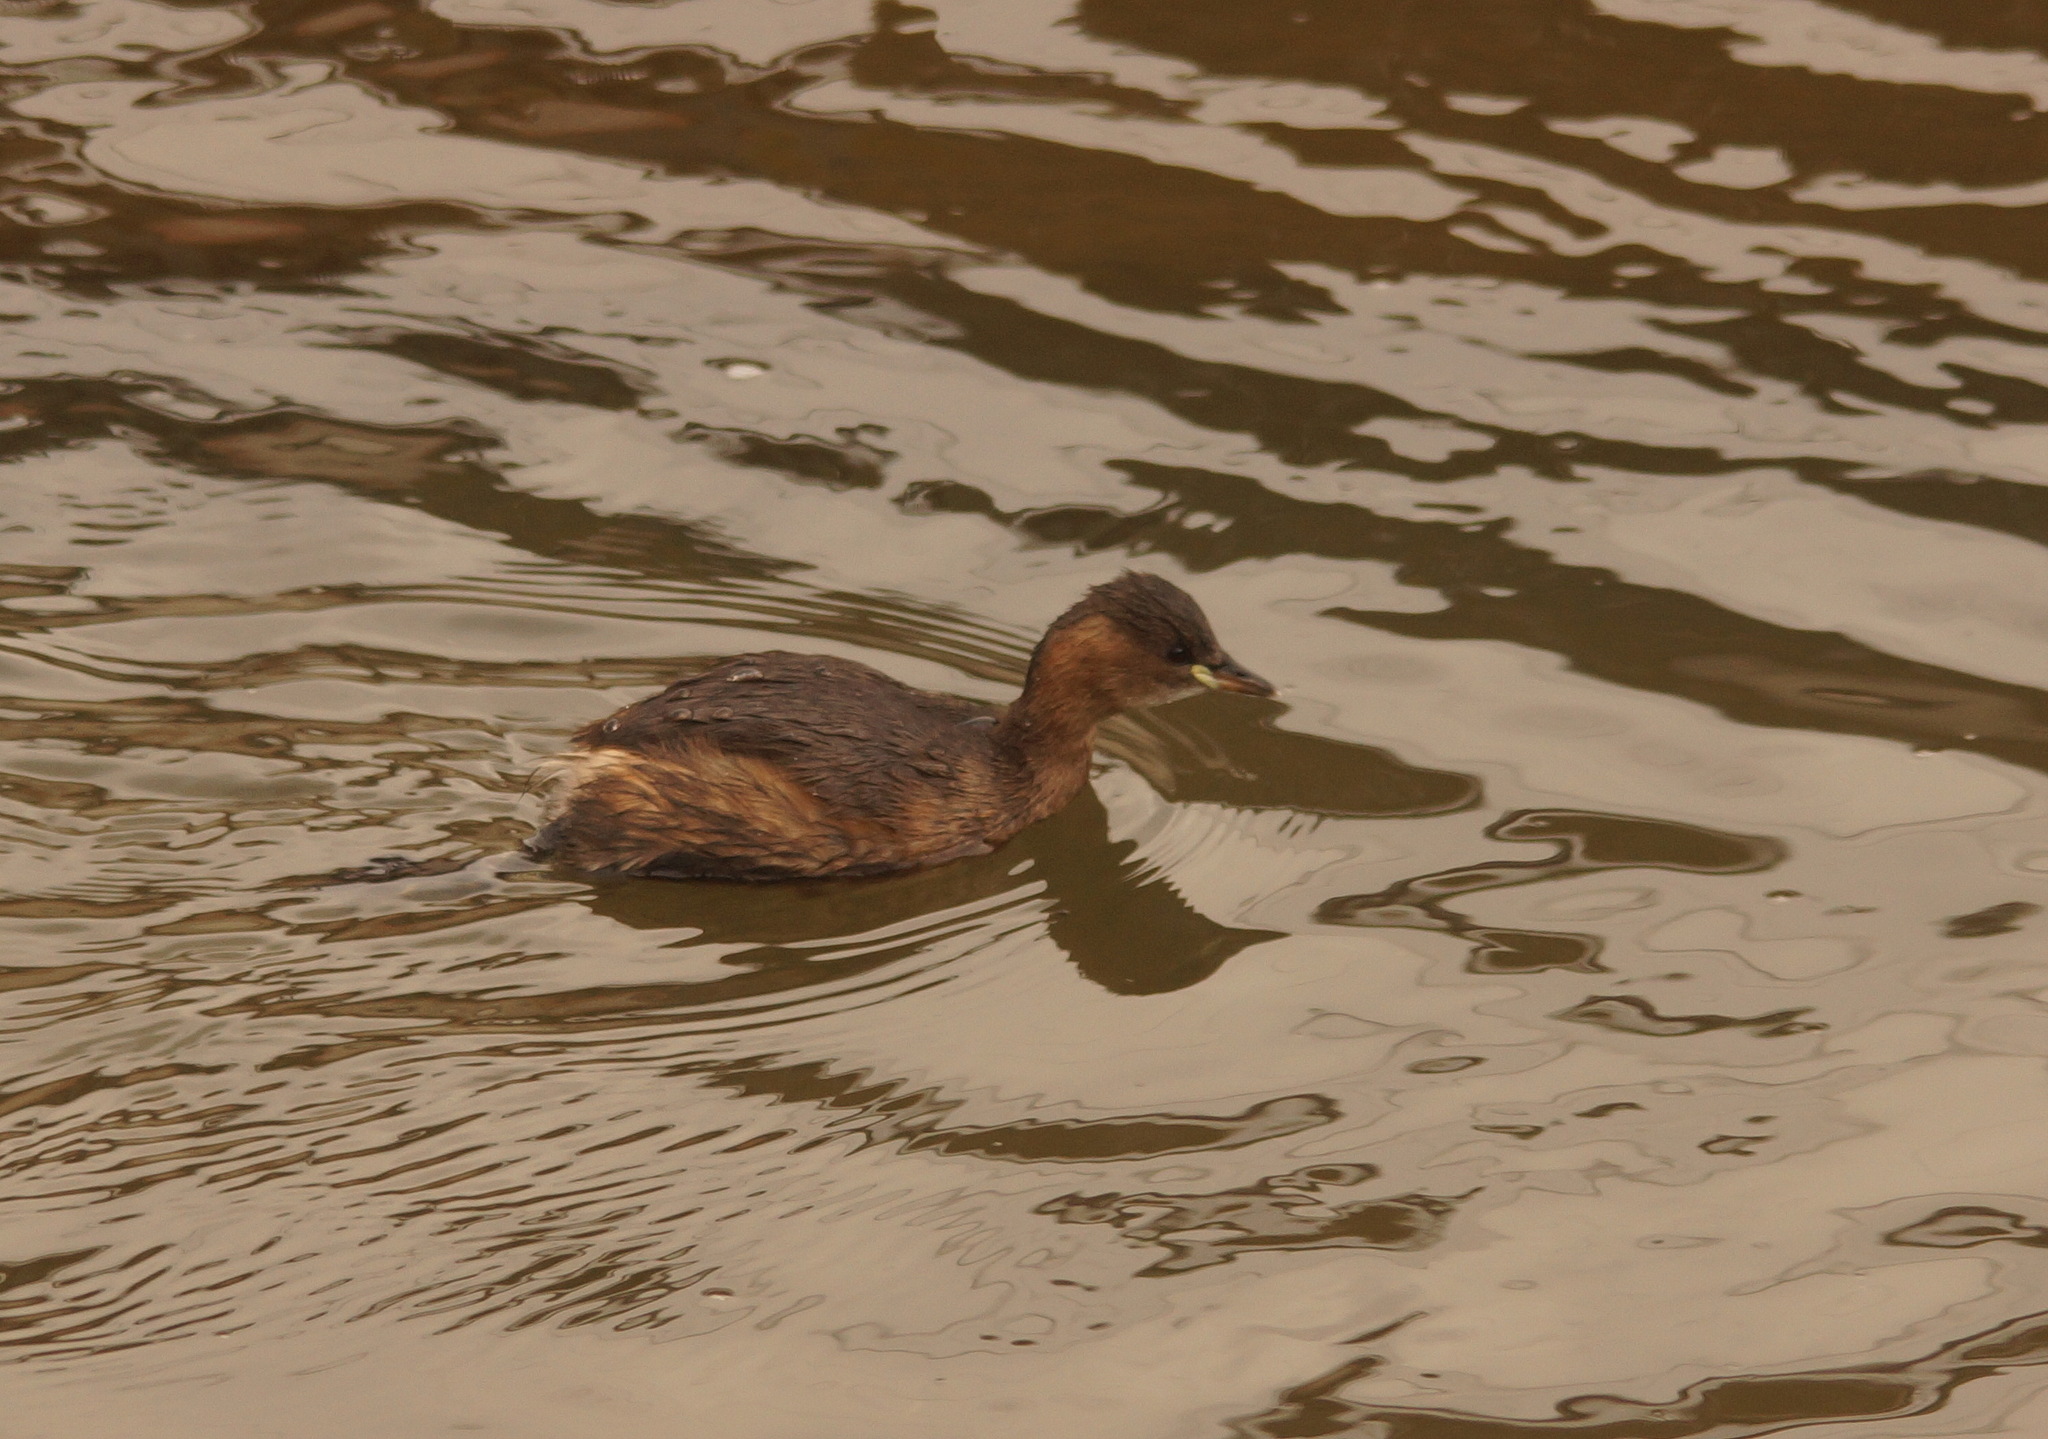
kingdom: Animalia
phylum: Chordata
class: Aves
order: Podicipediformes
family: Podicipedidae
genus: Tachybaptus
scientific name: Tachybaptus ruficollis
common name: Little grebe
